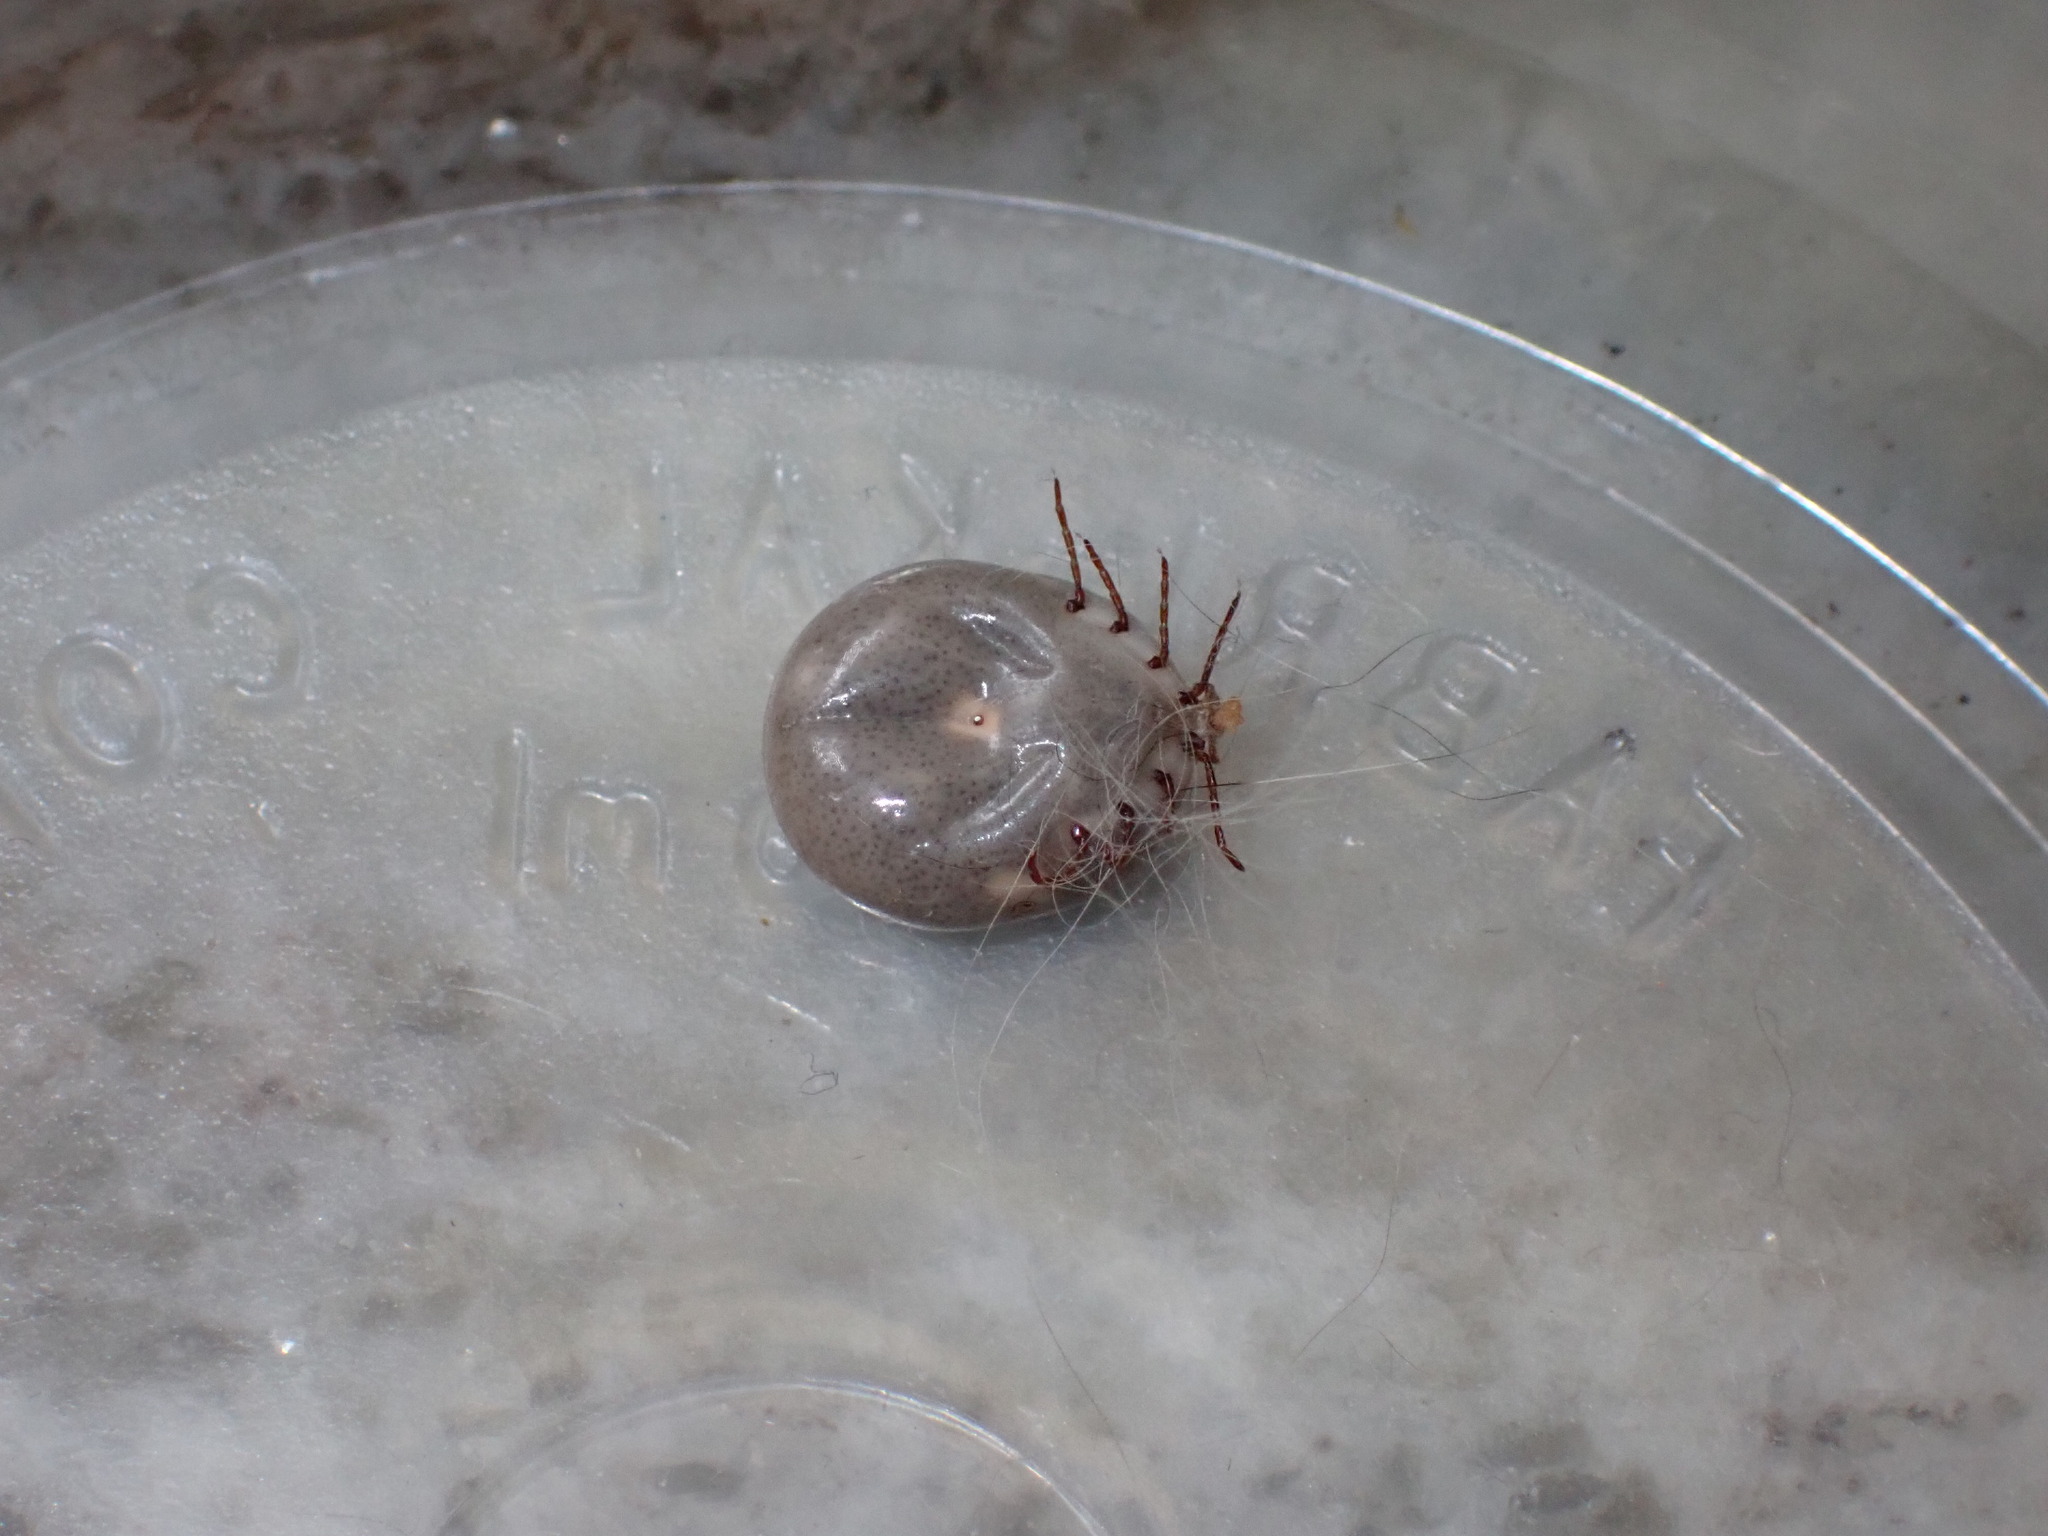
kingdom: Animalia
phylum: Arthropoda
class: Arachnida
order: Ixodida
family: Ixodidae
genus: Amblyomma
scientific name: Amblyomma americanum
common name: Lone star tick
